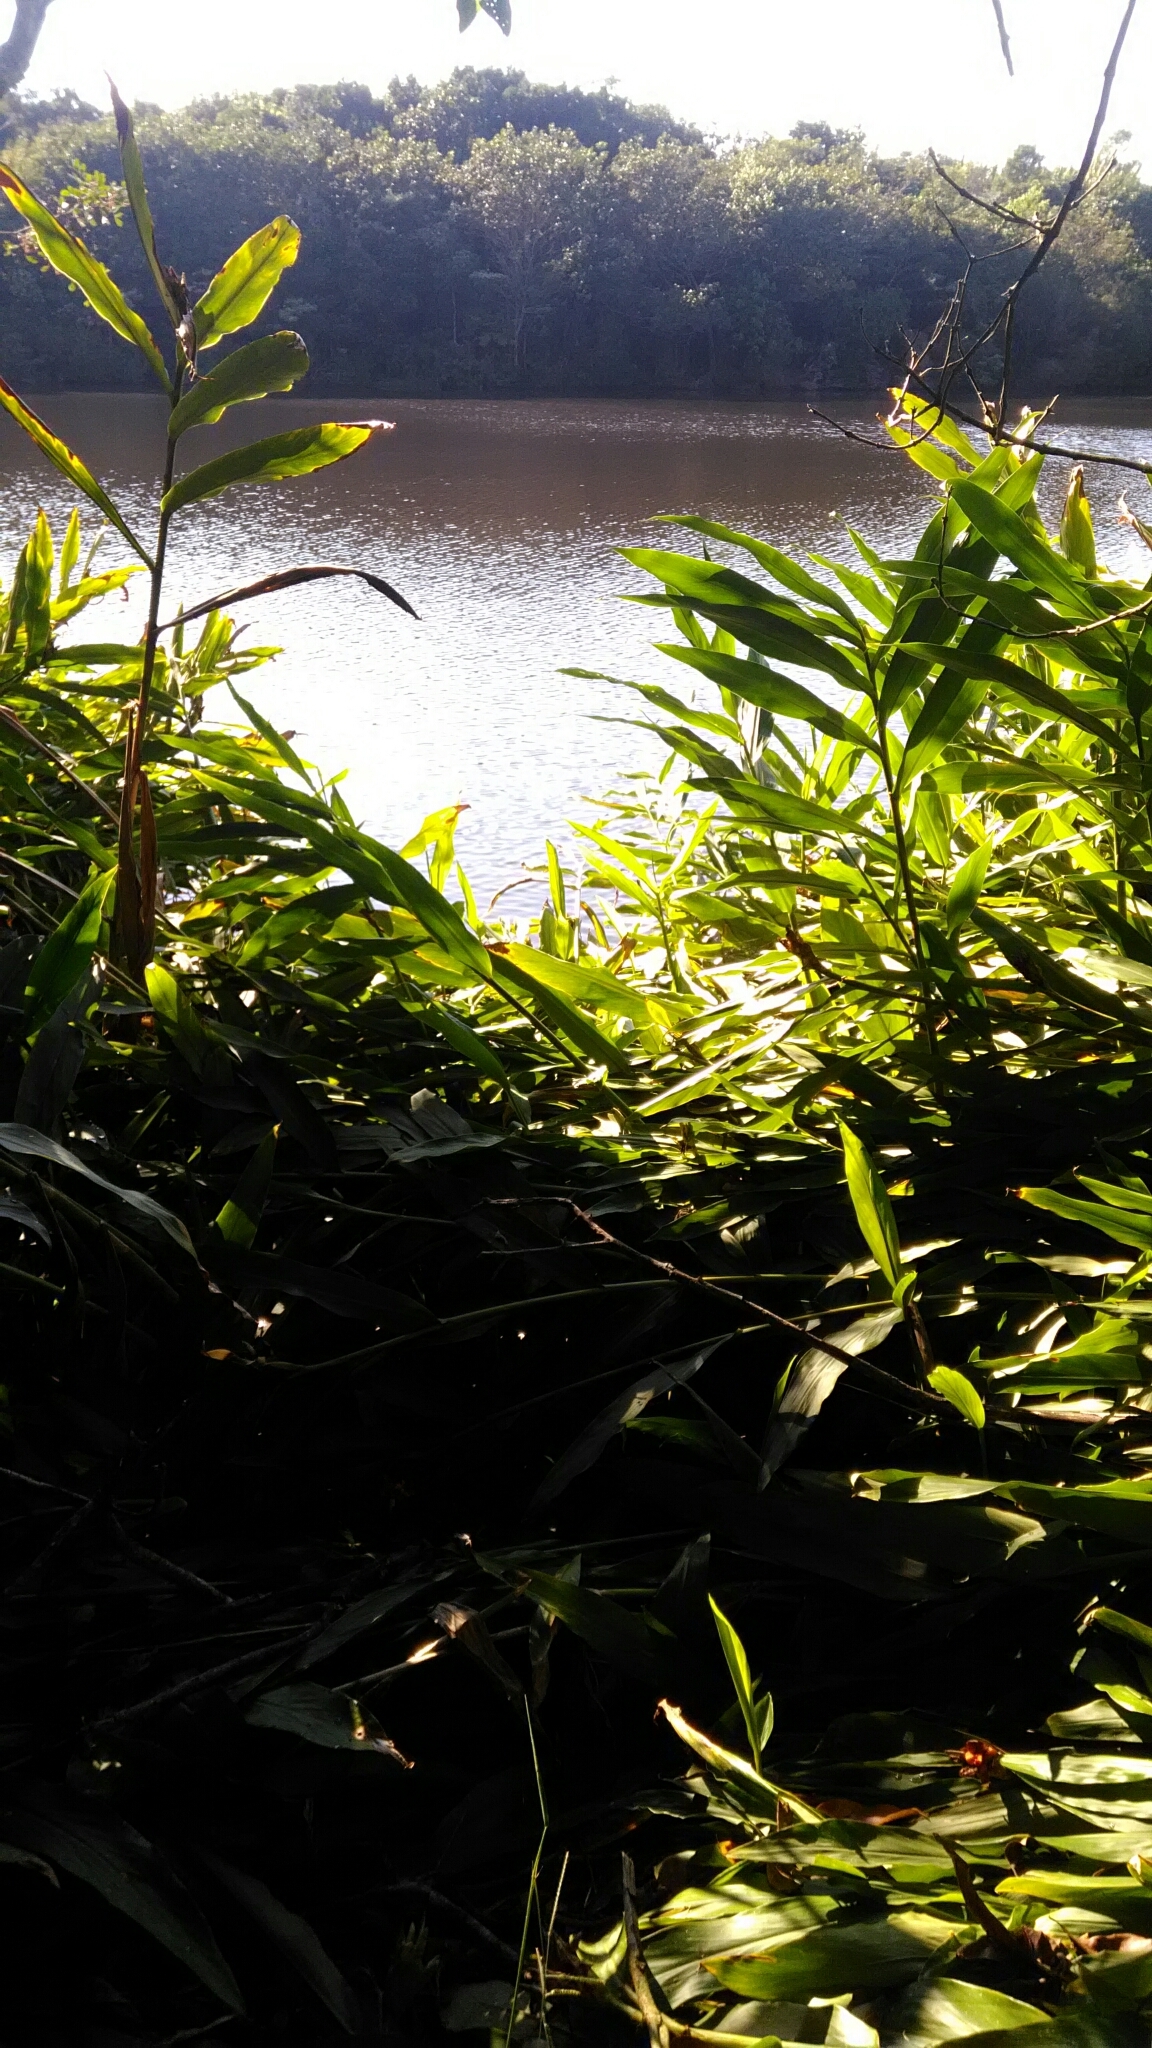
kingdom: Plantae
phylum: Tracheophyta
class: Liliopsida
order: Zingiberales
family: Zingiberaceae
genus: Hedychium
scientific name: Hedychium coronarium
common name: White garland-lily
